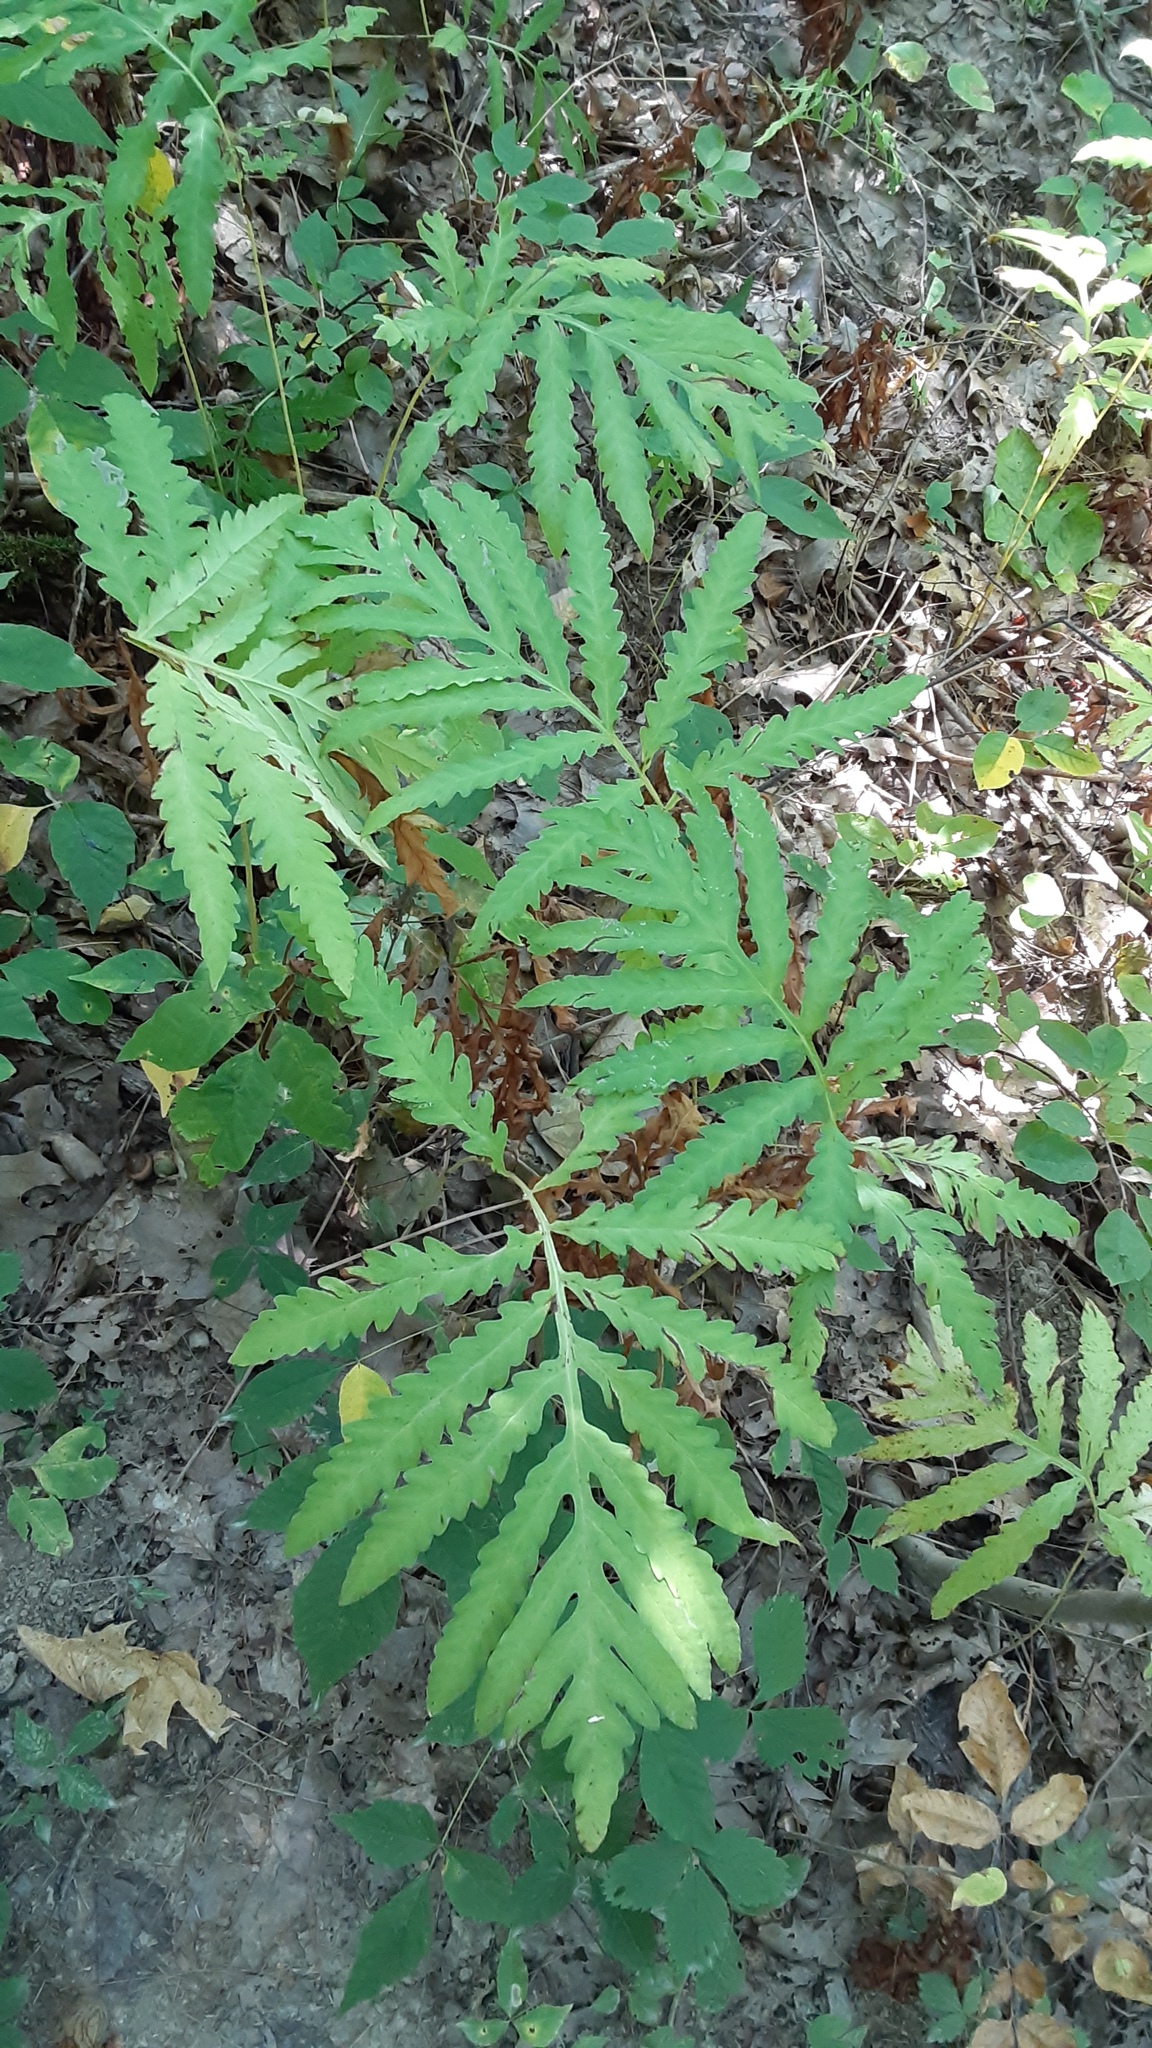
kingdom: Plantae
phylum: Tracheophyta
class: Polypodiopsida
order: Polypodiales
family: Onocleaceae
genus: Onoclea
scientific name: Onoclea sensibilis
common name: Sensitive fern
